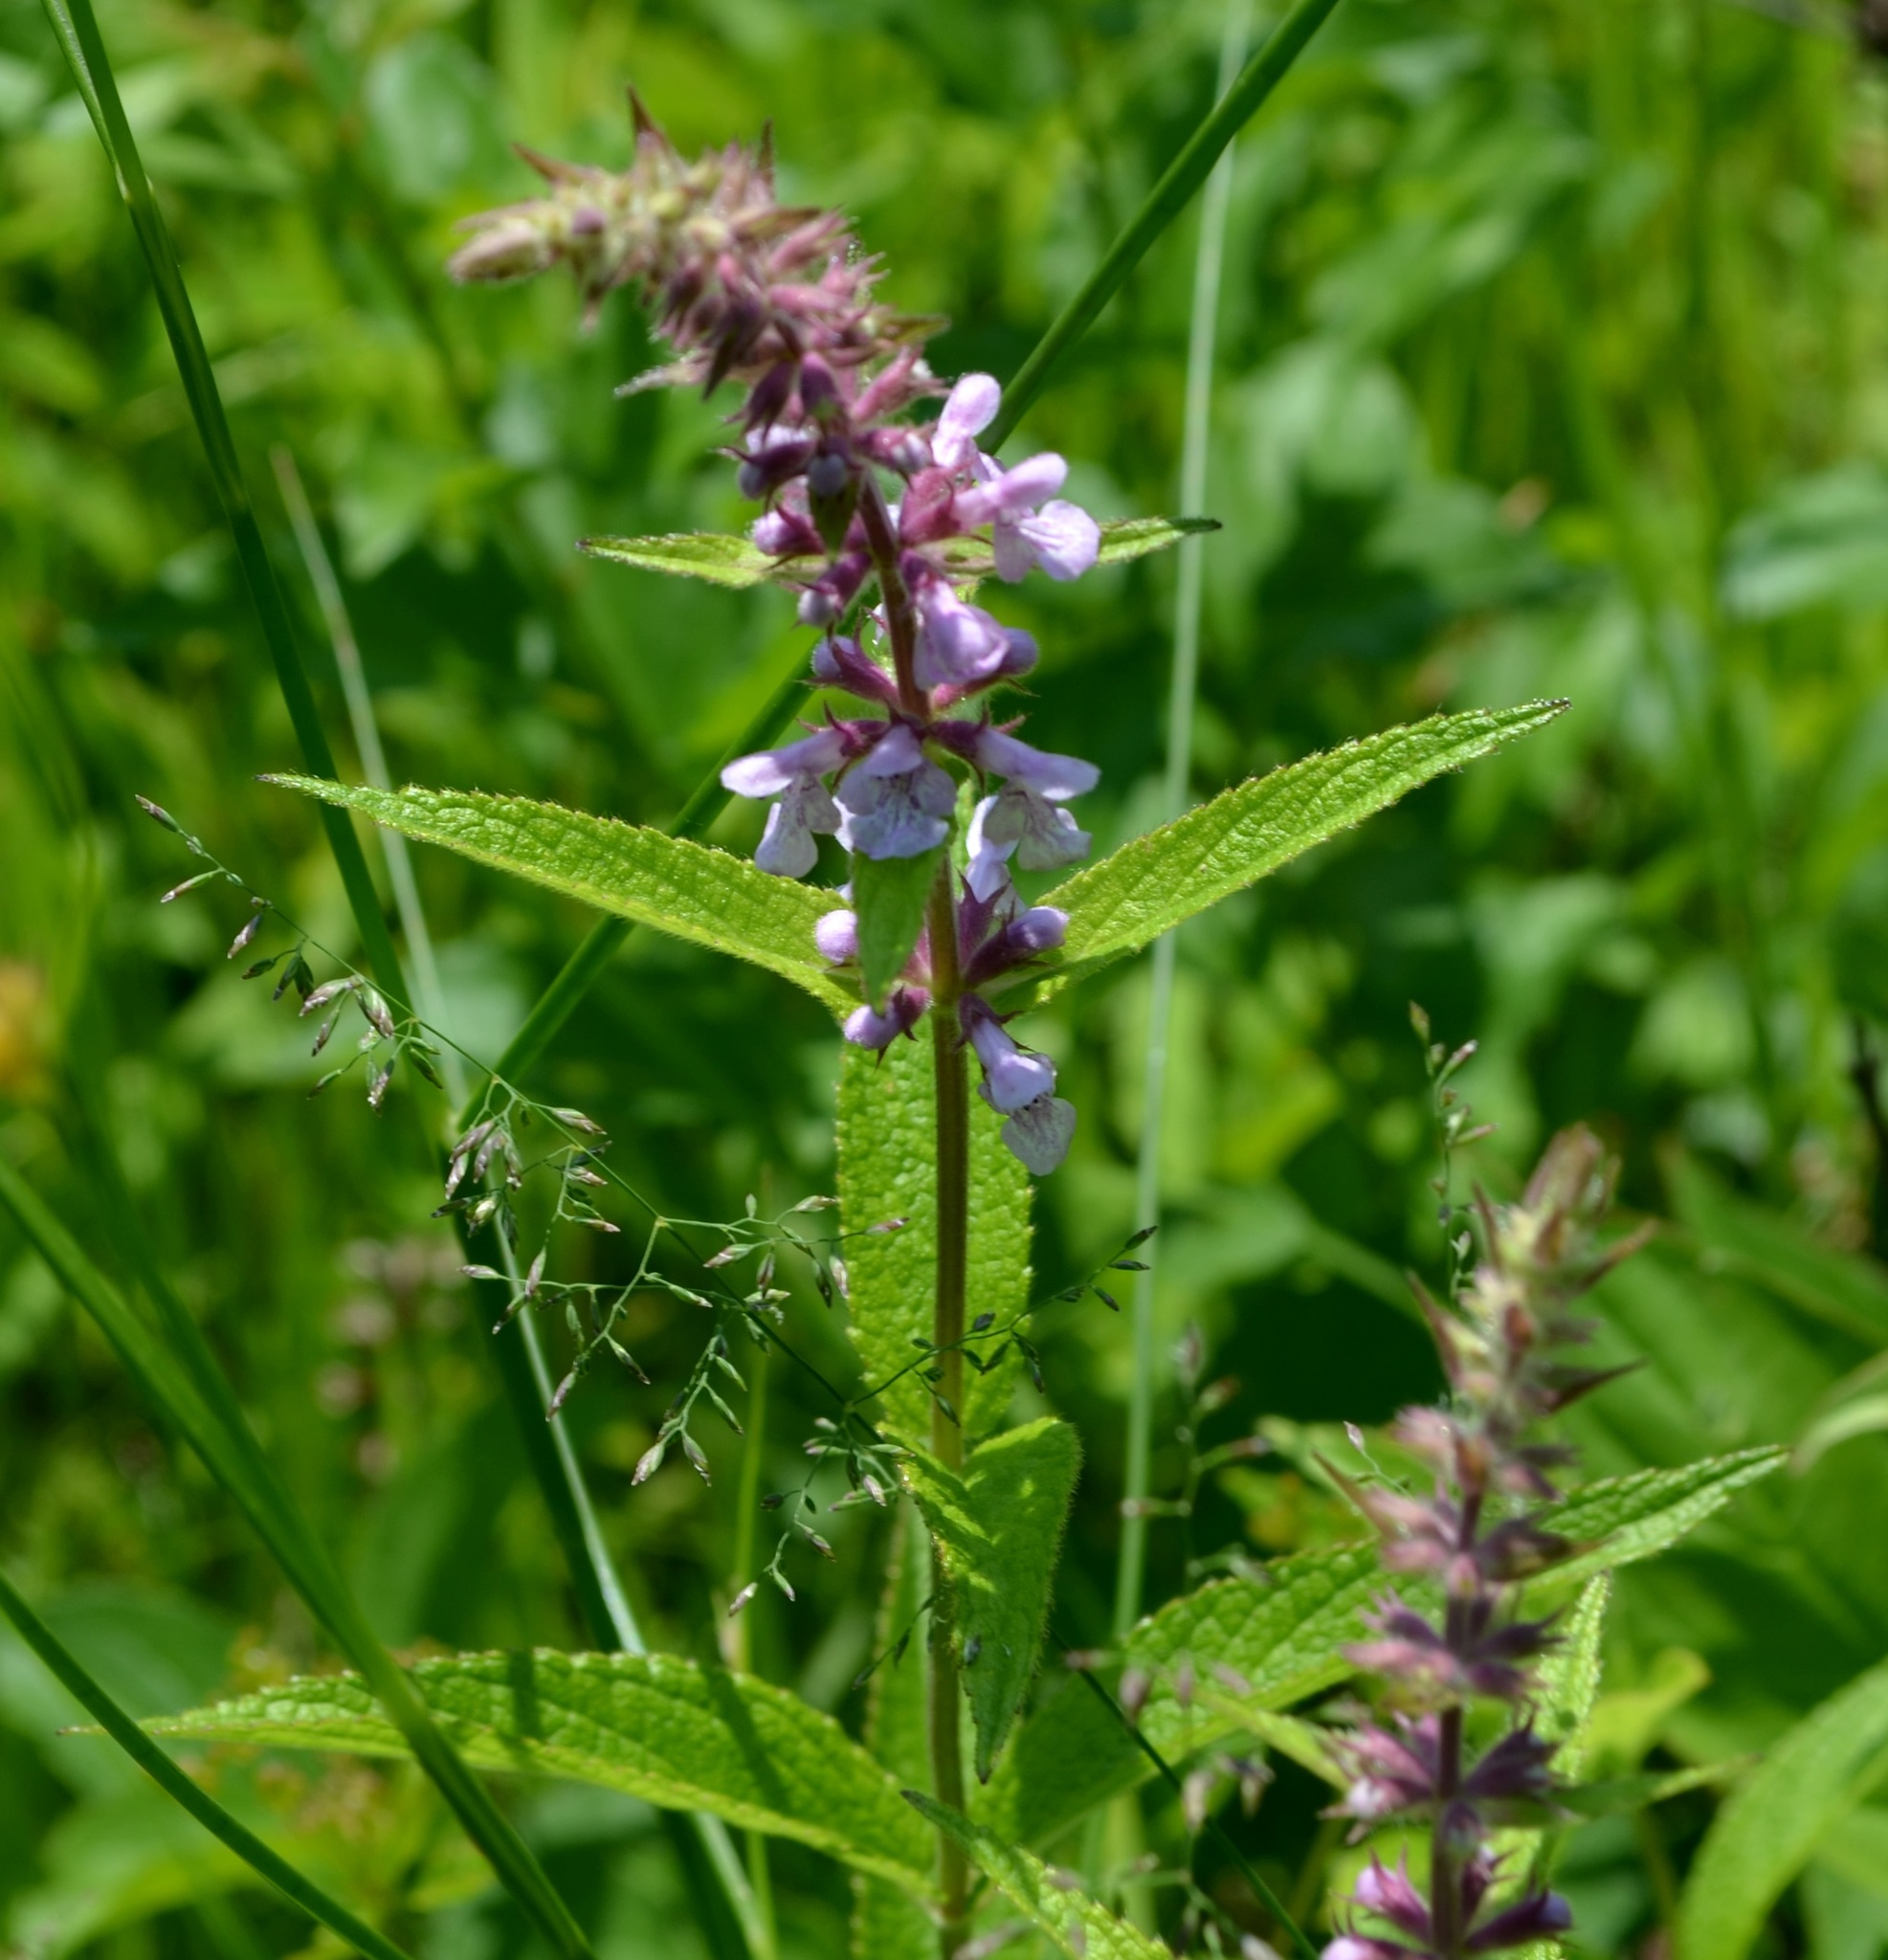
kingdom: Plantae
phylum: Tracheophyta
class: Magnoliopsida
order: Lamiales
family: Lamiaceae
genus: Stachys
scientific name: Stachys palustris
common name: Marsh woundwort
